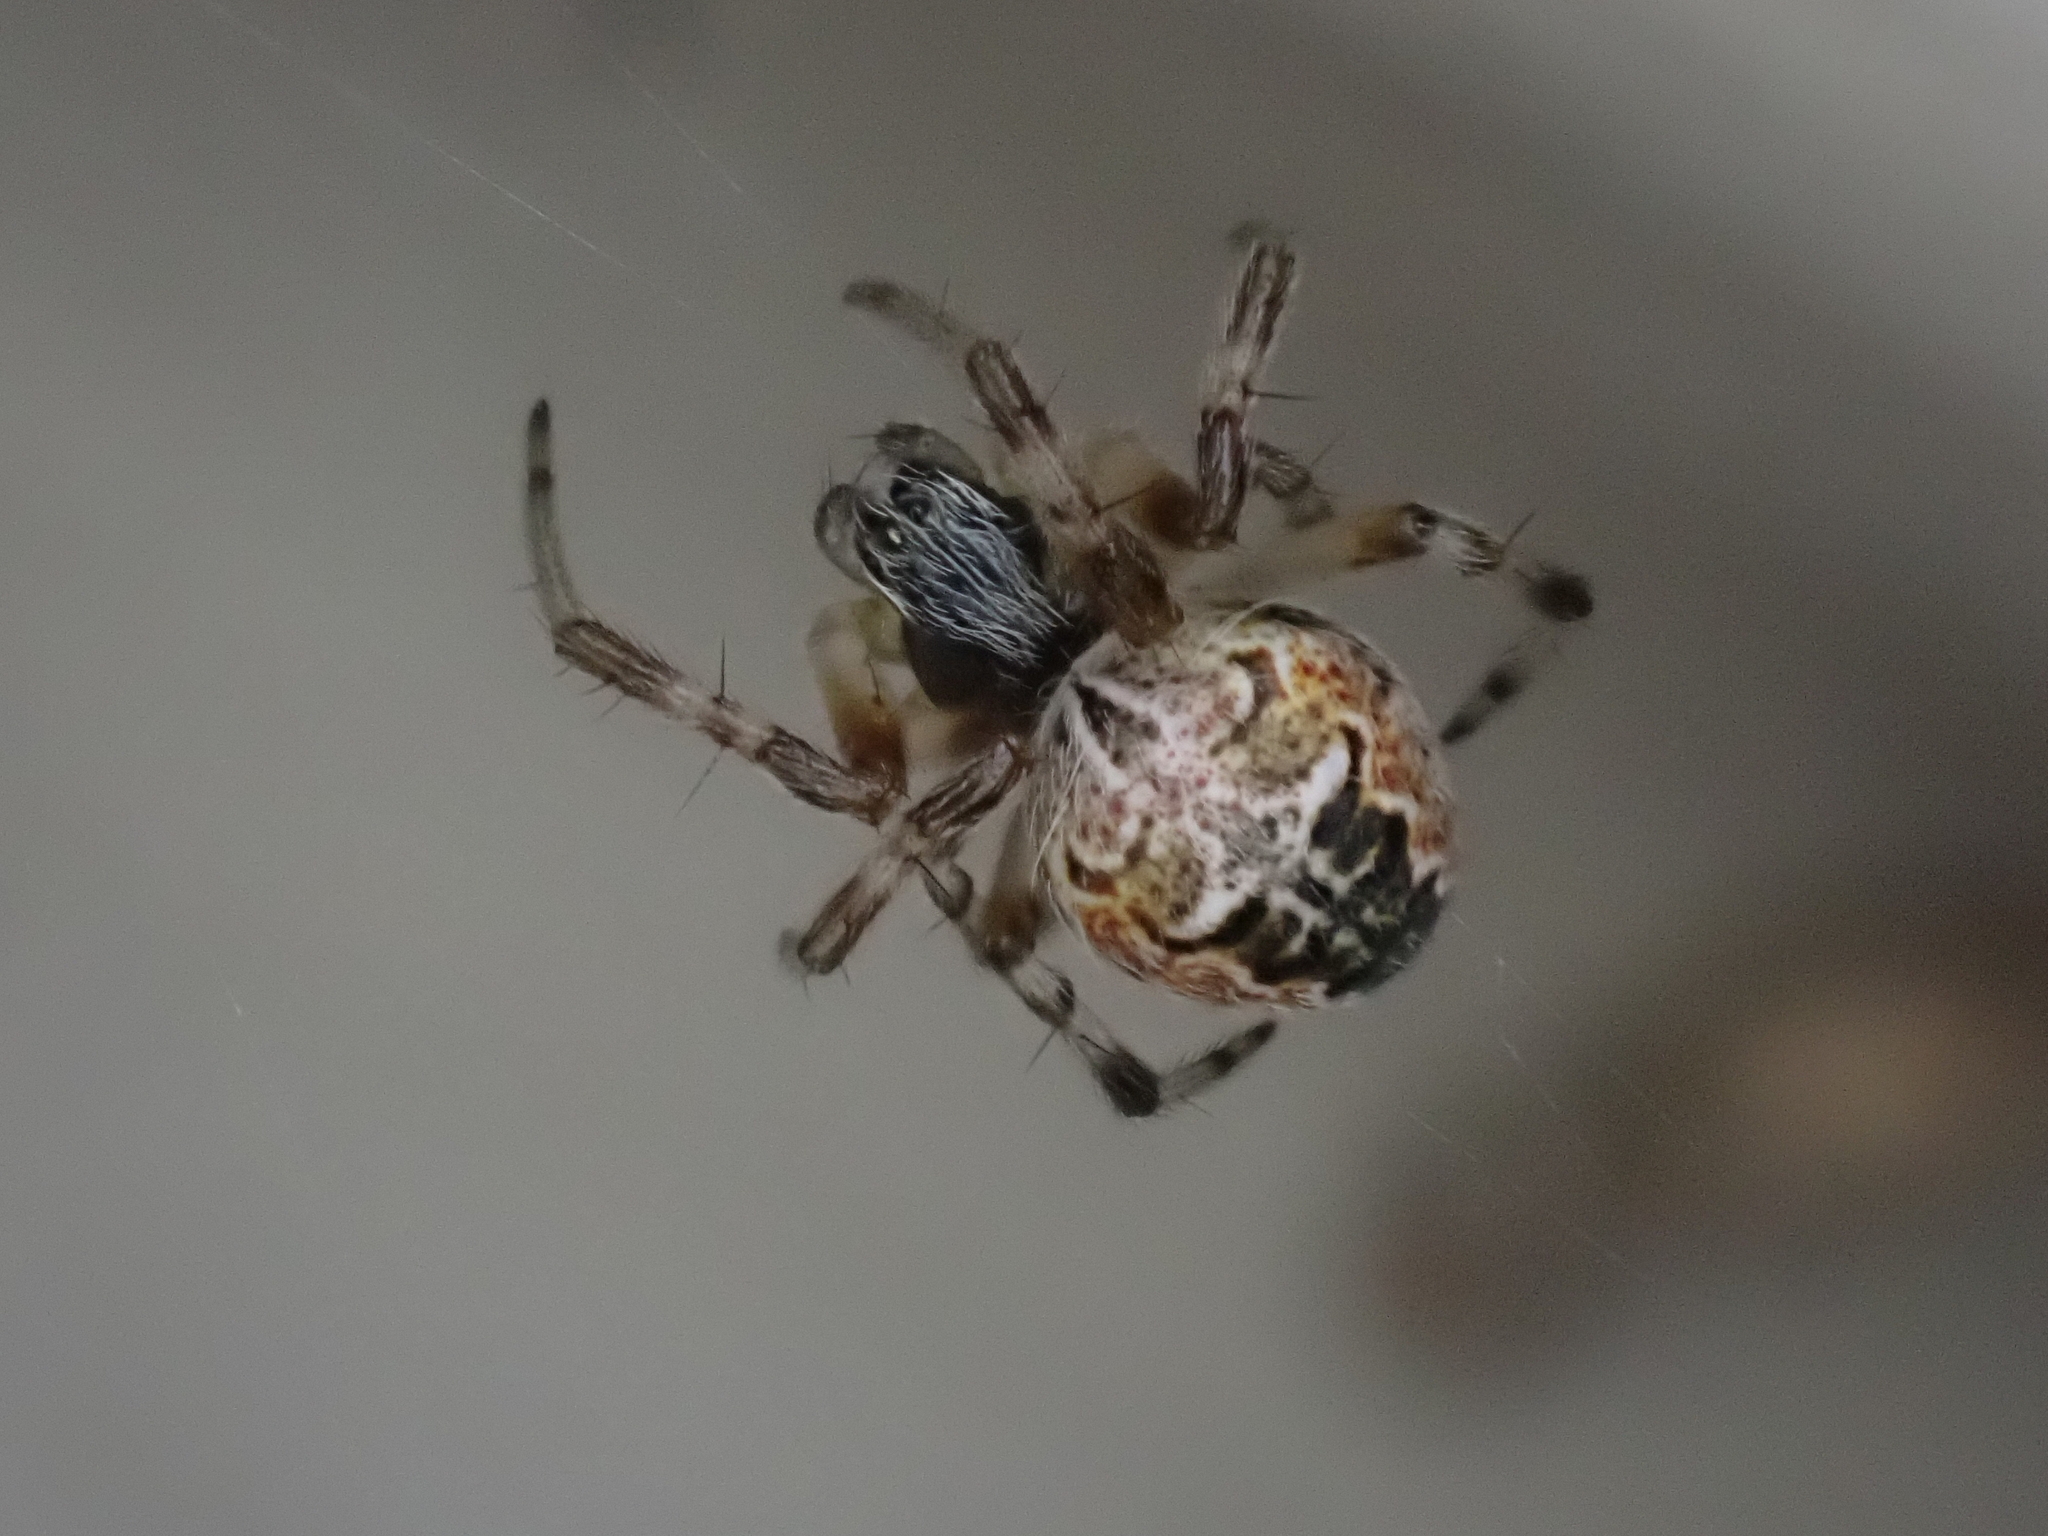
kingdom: Animalia
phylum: Arthropoda
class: Arachnida
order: Araneae
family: Araneidae
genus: Metepeira
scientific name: Metepeira labyrinthea
